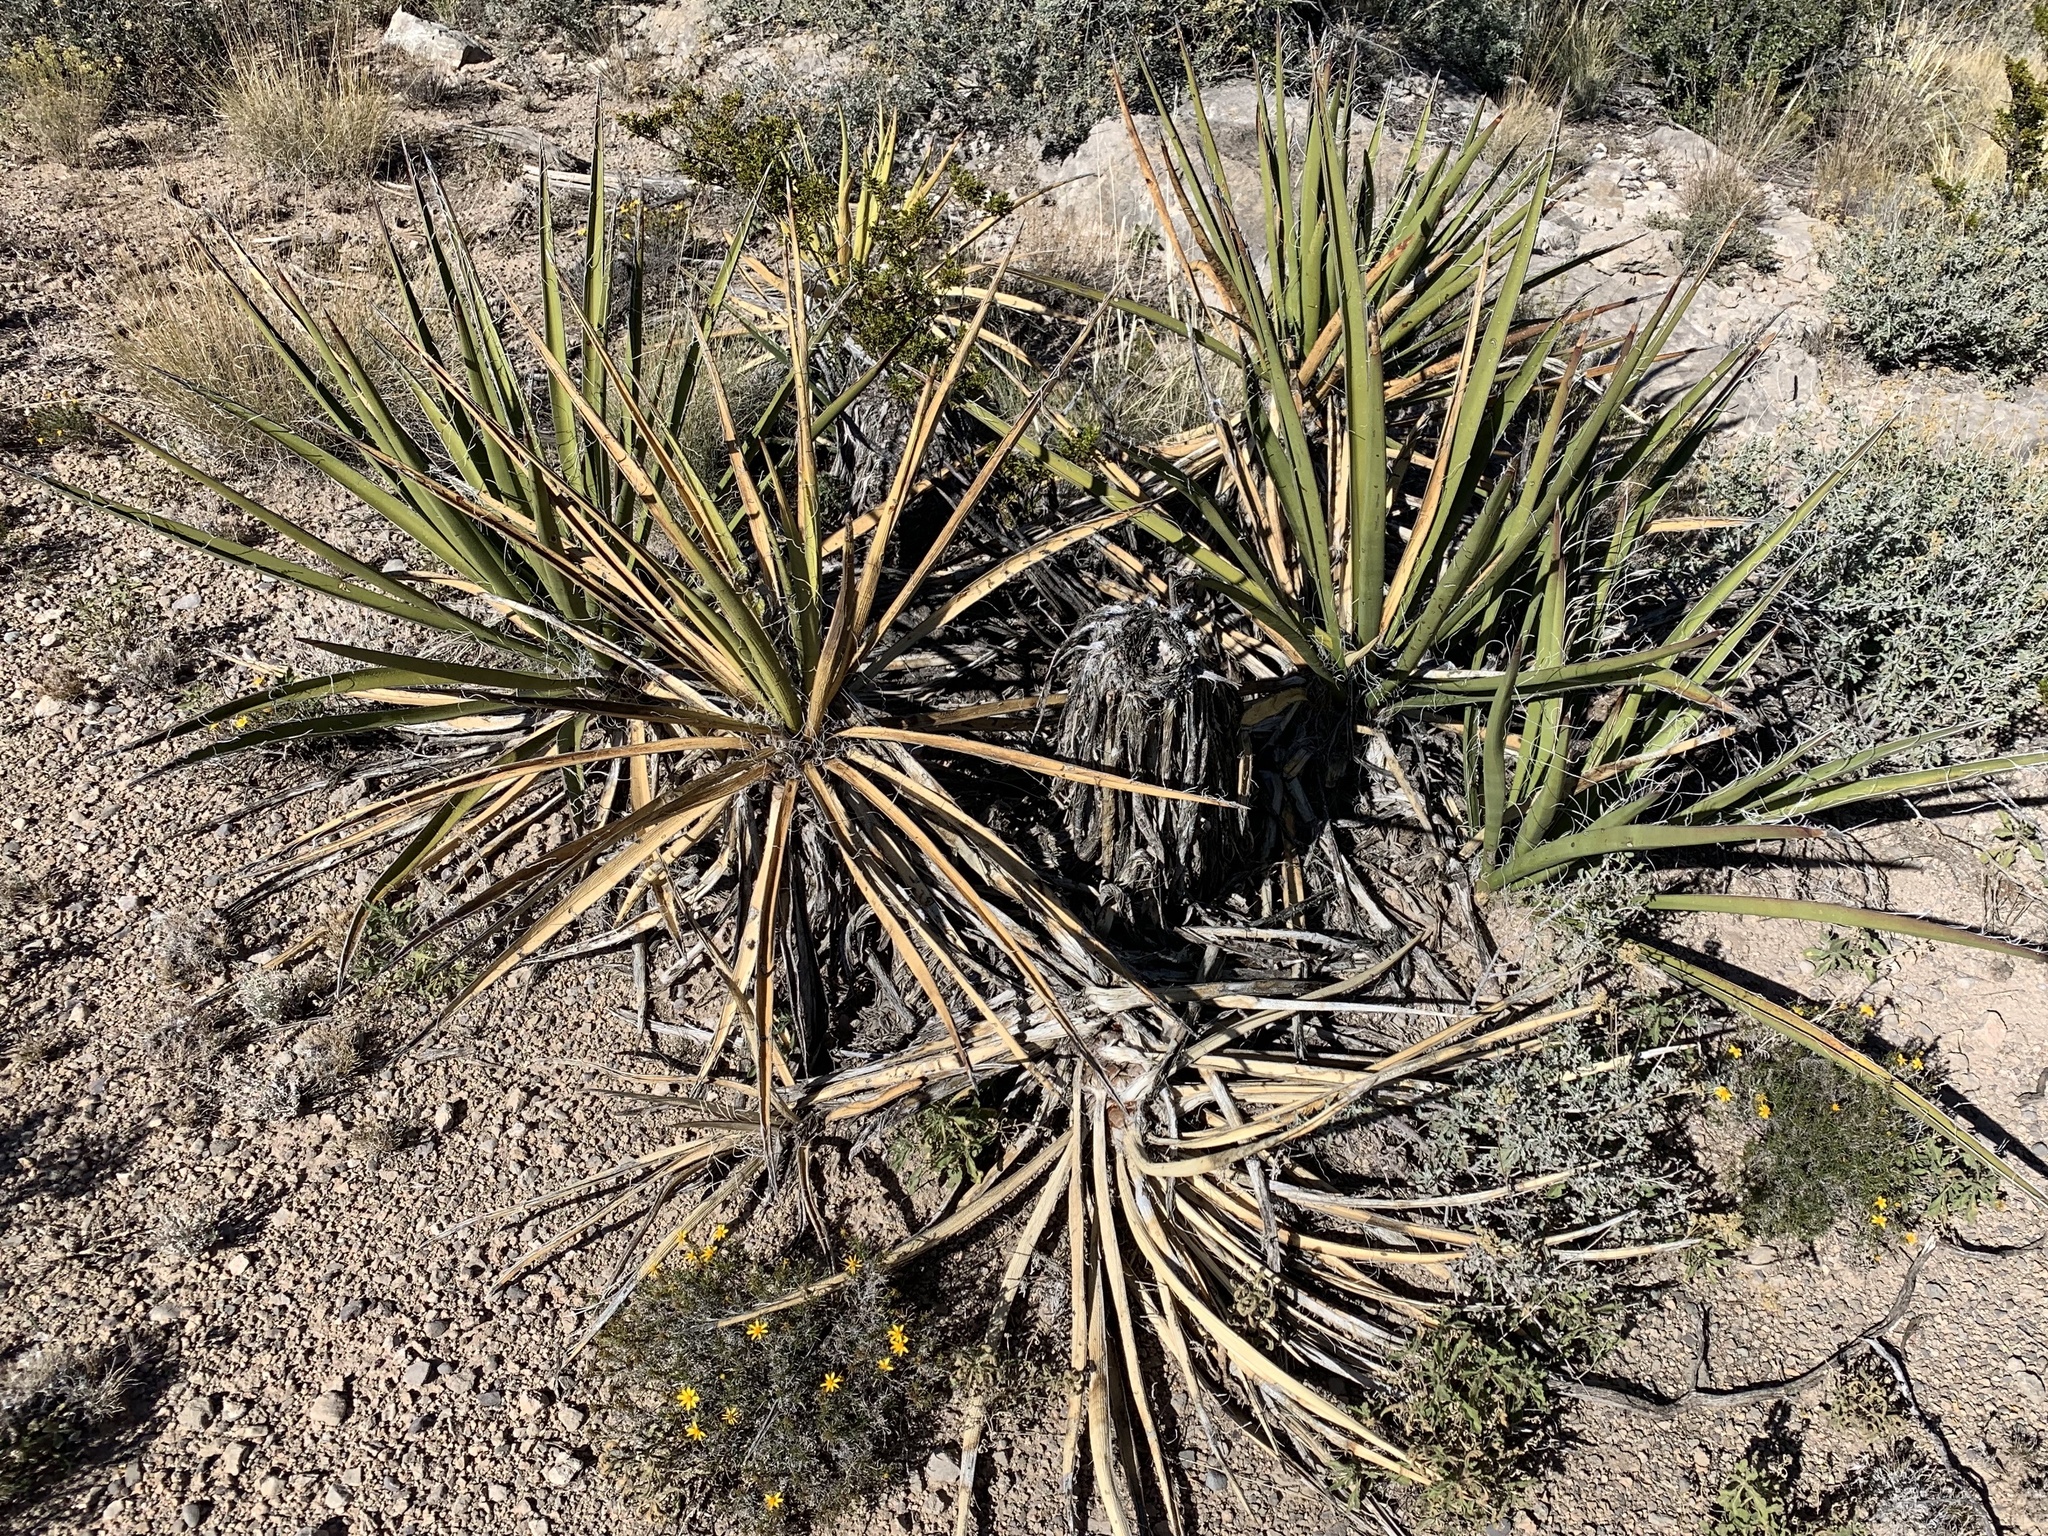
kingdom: Plantae
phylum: Tracheophyta
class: Liliopsida
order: Asparagales
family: Asparagaceae
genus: Yucca
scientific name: Yucca baccata
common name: Banana yucca
